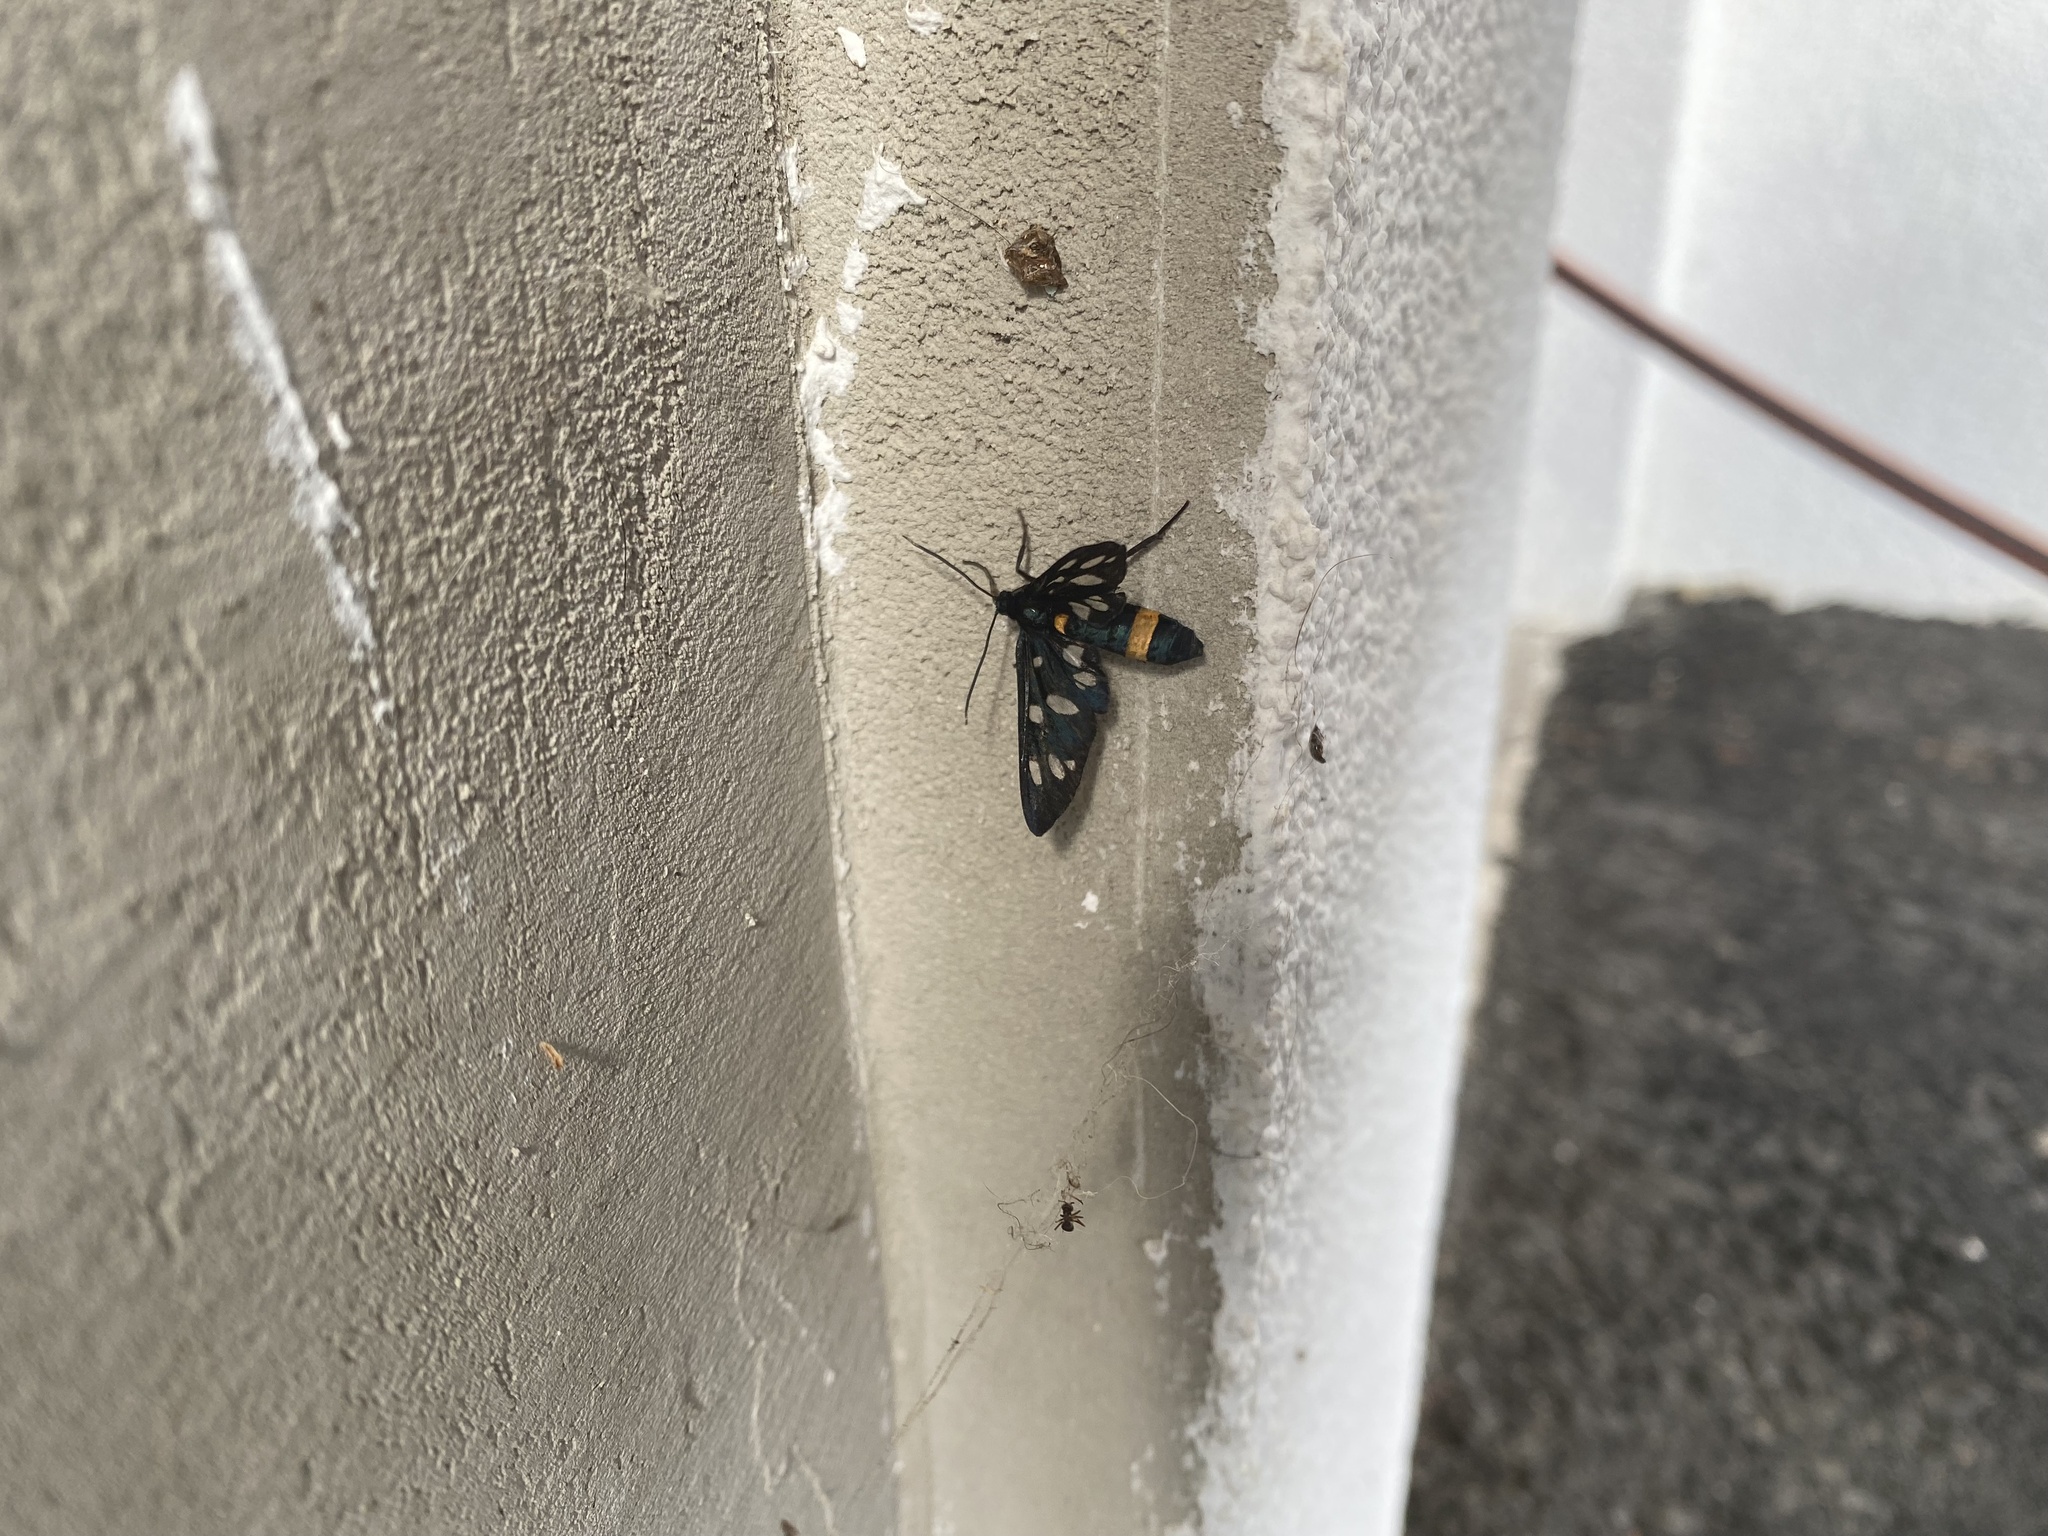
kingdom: Animalia
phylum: Arthropoda
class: Insecta
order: Lepidoptera
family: Erebidae
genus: Amata
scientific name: Amata phegea
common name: Nine-spotted
